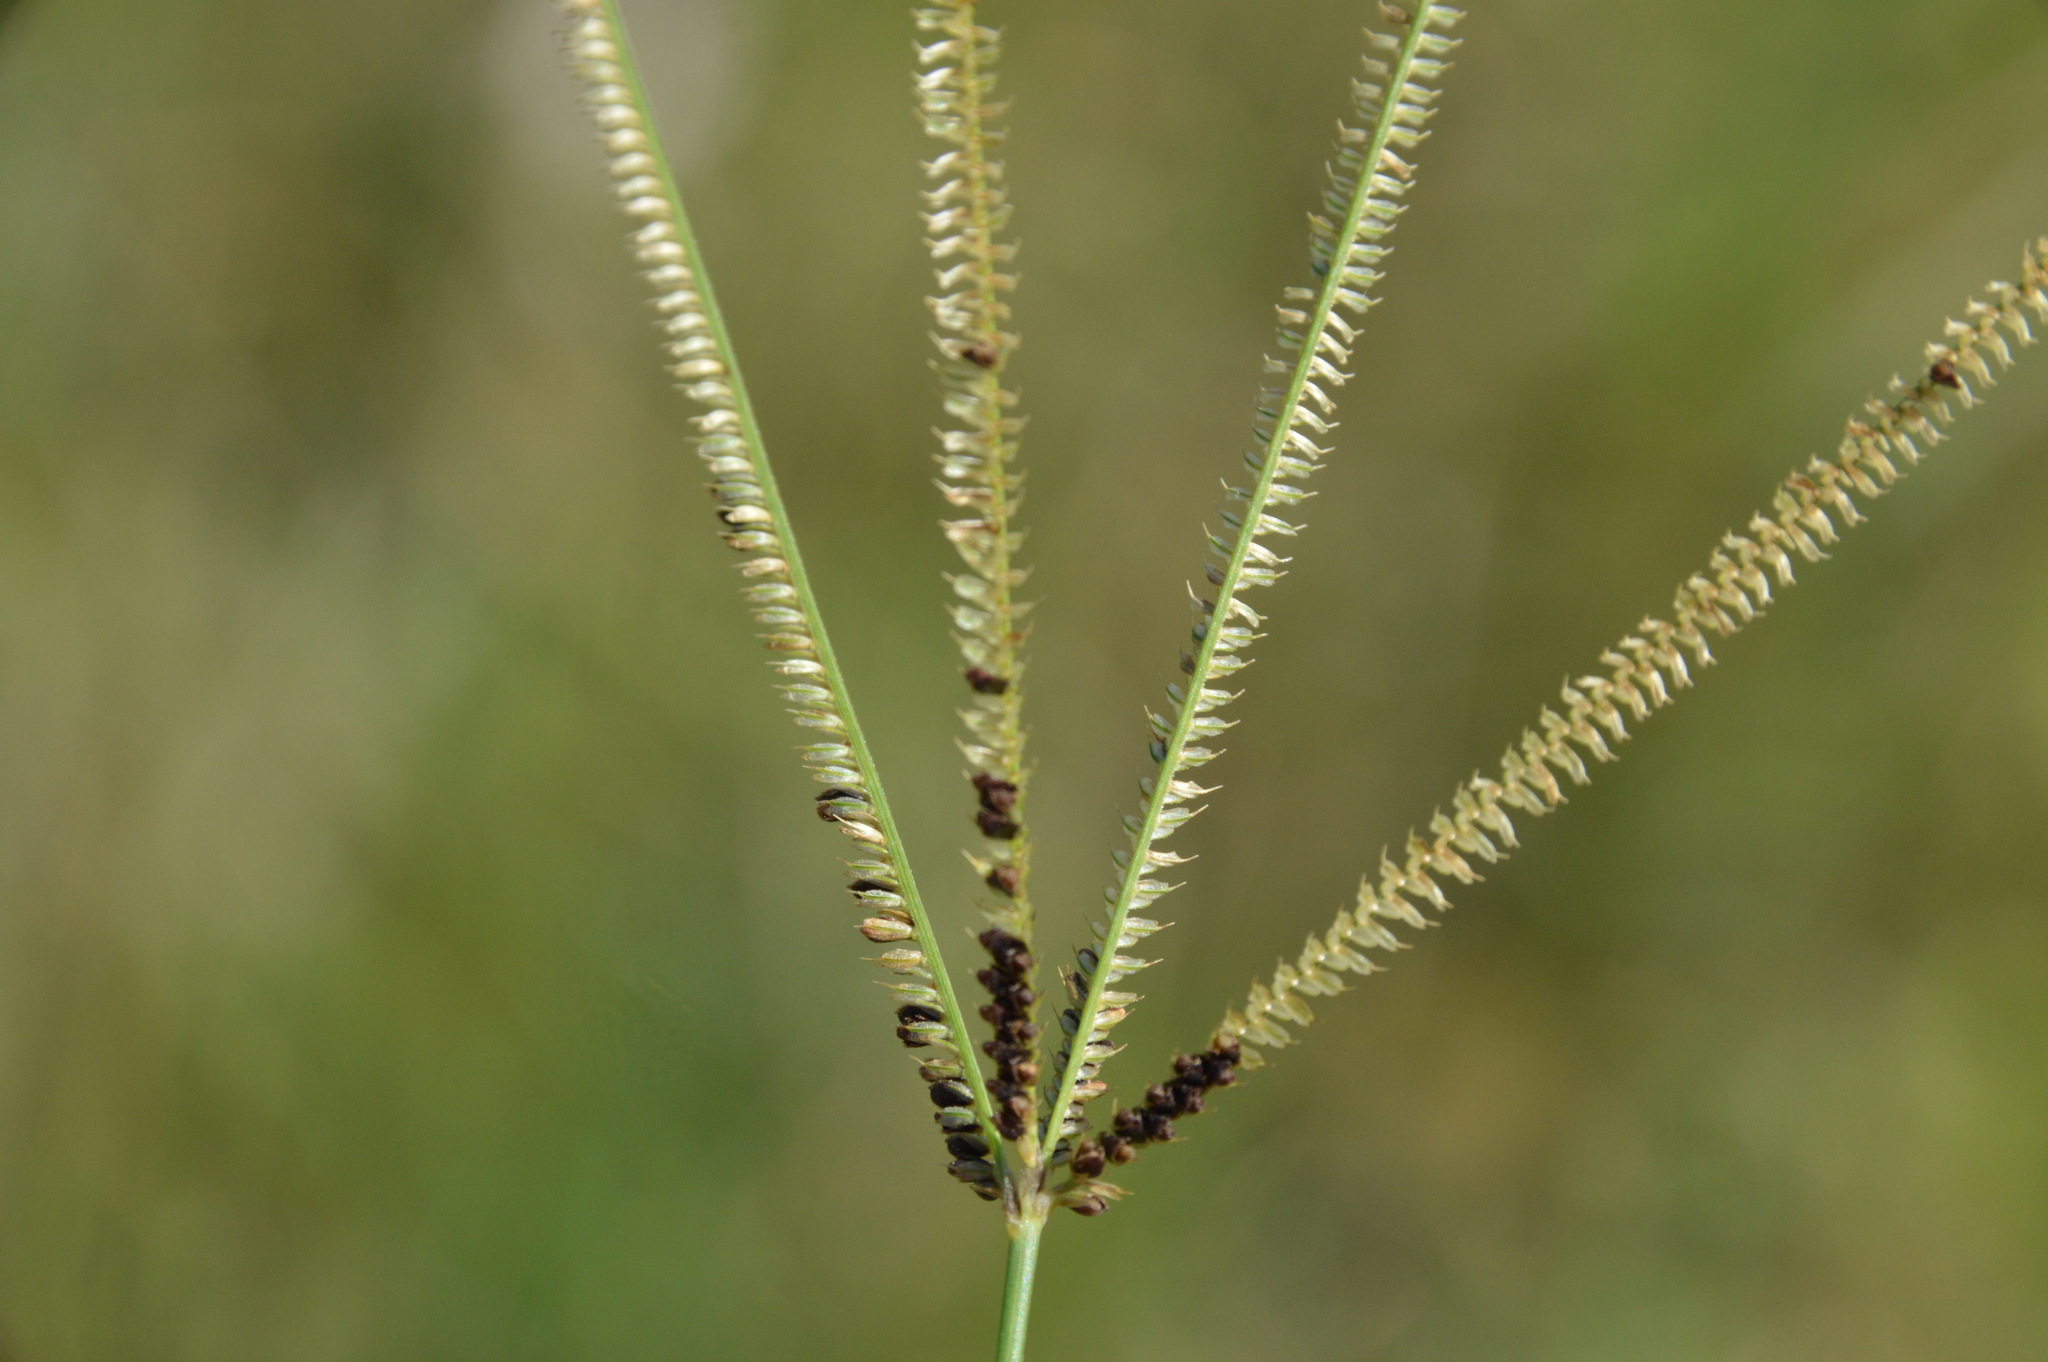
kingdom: Plantae
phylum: Tracheophyta
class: Liliopsida
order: Poales
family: Poaceae
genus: Eustachys
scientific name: Eustachys petraea
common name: Pinewoods fingergrass
